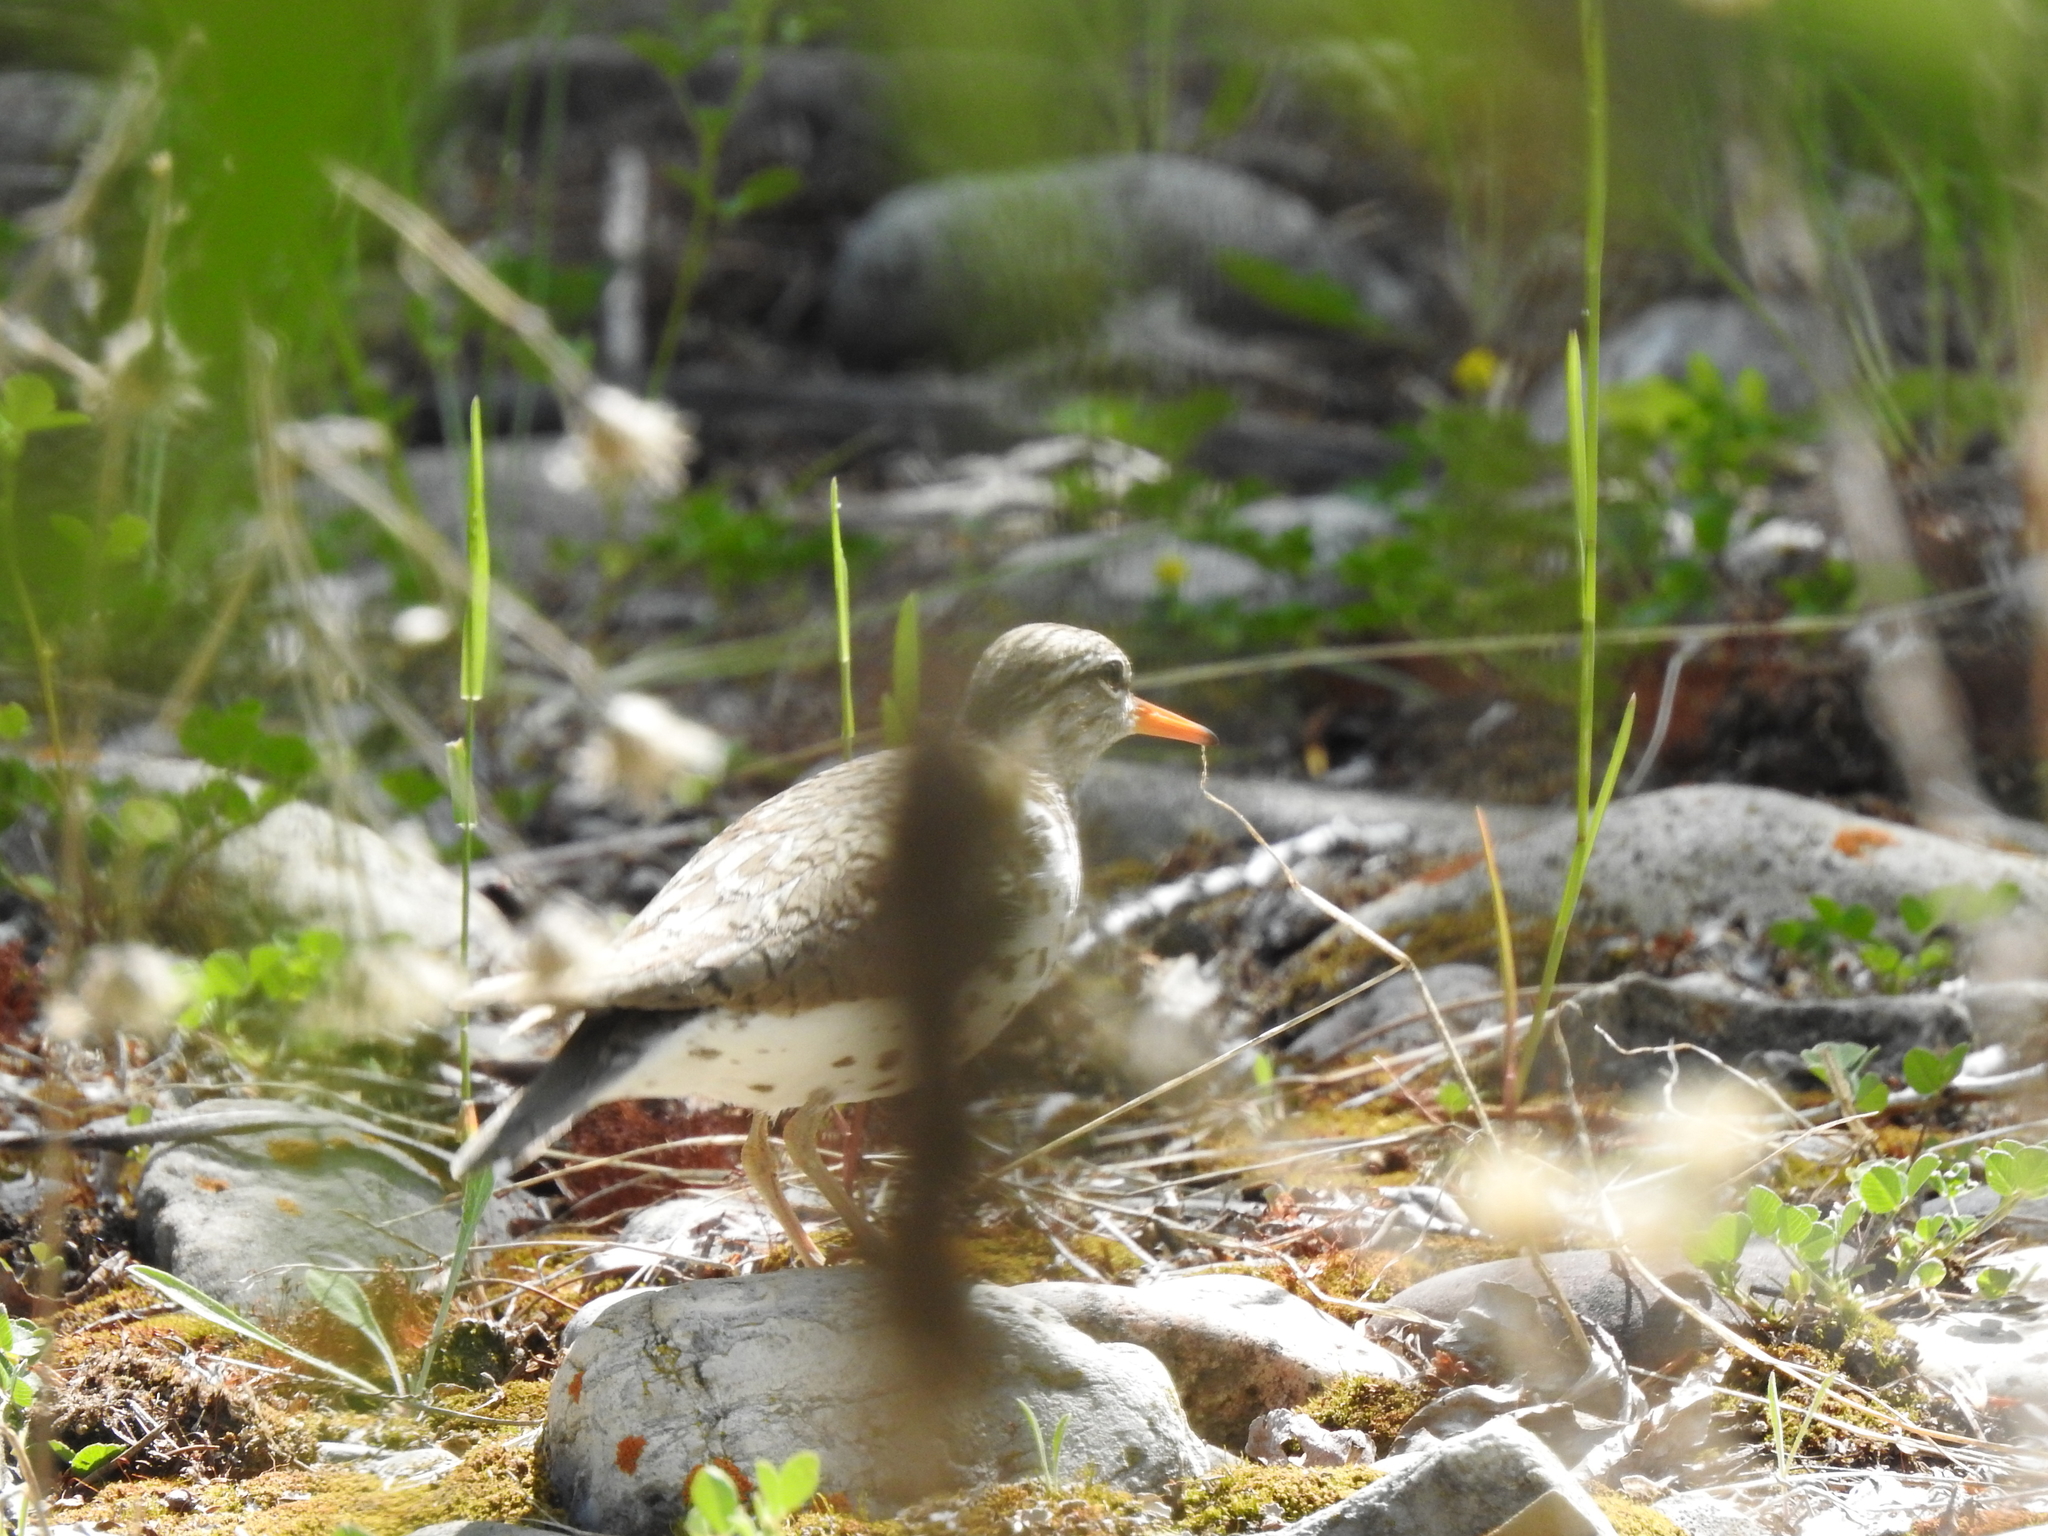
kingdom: Animalia
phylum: Chordata
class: Aves
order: Charadriiformes
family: Scolopacidae
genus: Actitis
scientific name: Actitis macularius
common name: Spotted sandpiper
